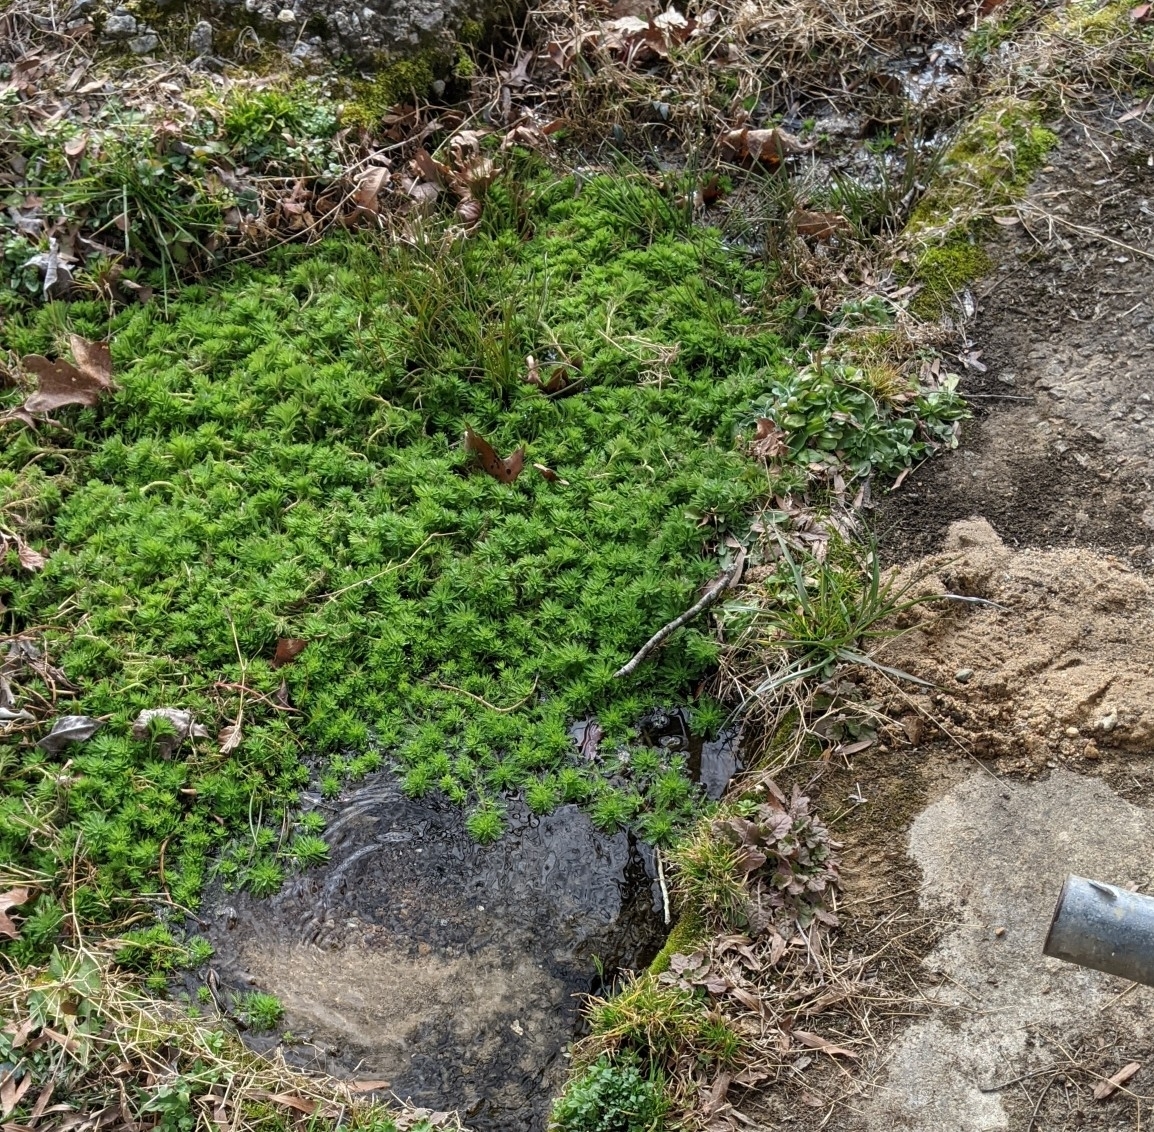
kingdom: Plantae
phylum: Tracheophyta
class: Magnoliopsida
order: Saxifragales
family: Haloragaceae
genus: Myriophyllum
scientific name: Myriophyllum aquaticum
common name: Parrot's feather
